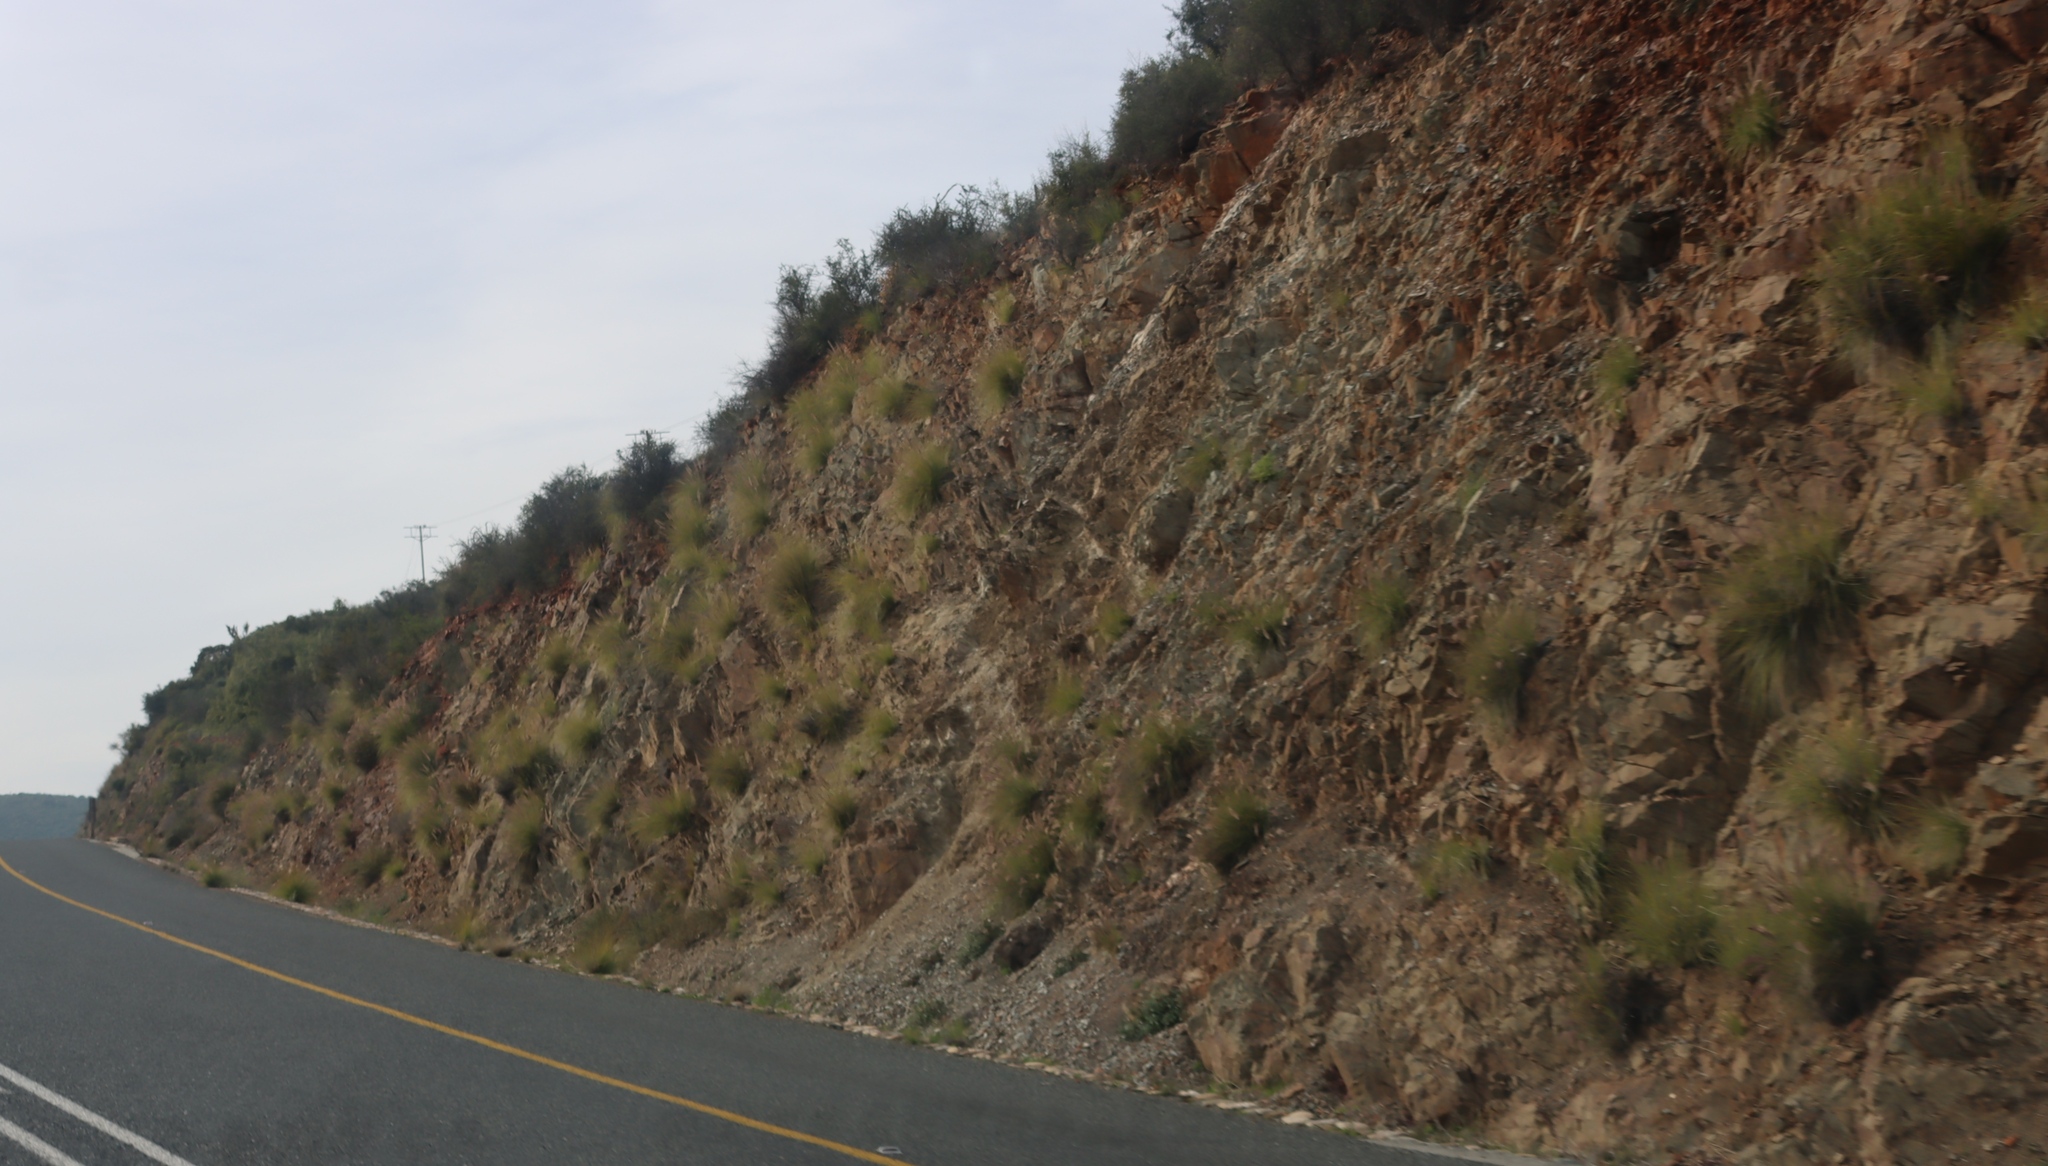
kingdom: Plantae
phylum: Tracheophyta
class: Liliopsida
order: Poales
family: Poaceae
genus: Cenchrus
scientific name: Cenchrus setaceus
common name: Crimson fountaingrass
